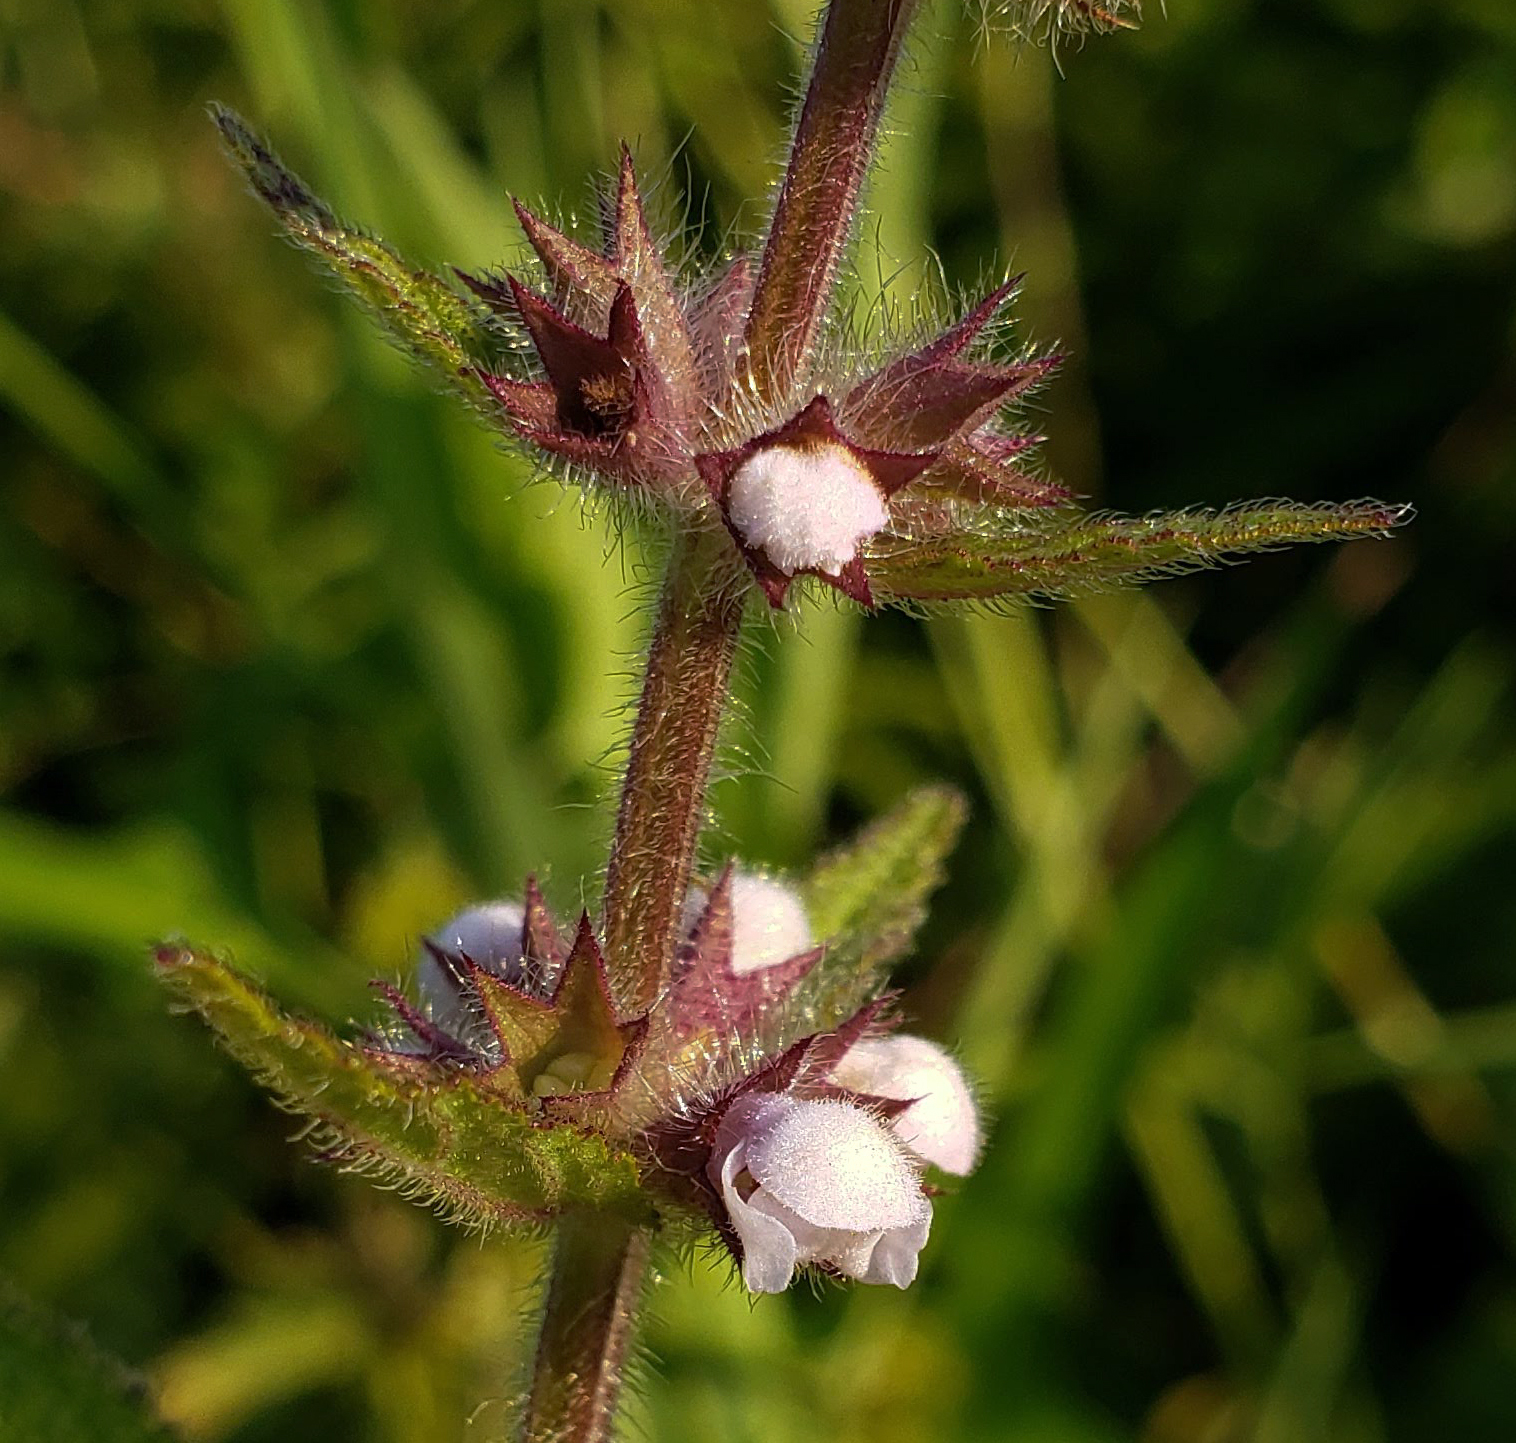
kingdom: Plantae
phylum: Tracheophyta
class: Magnoliopsida
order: Lamiales
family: Lamiaceae
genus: Stachys
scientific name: Stachys palustris
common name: Marsh woundwort
